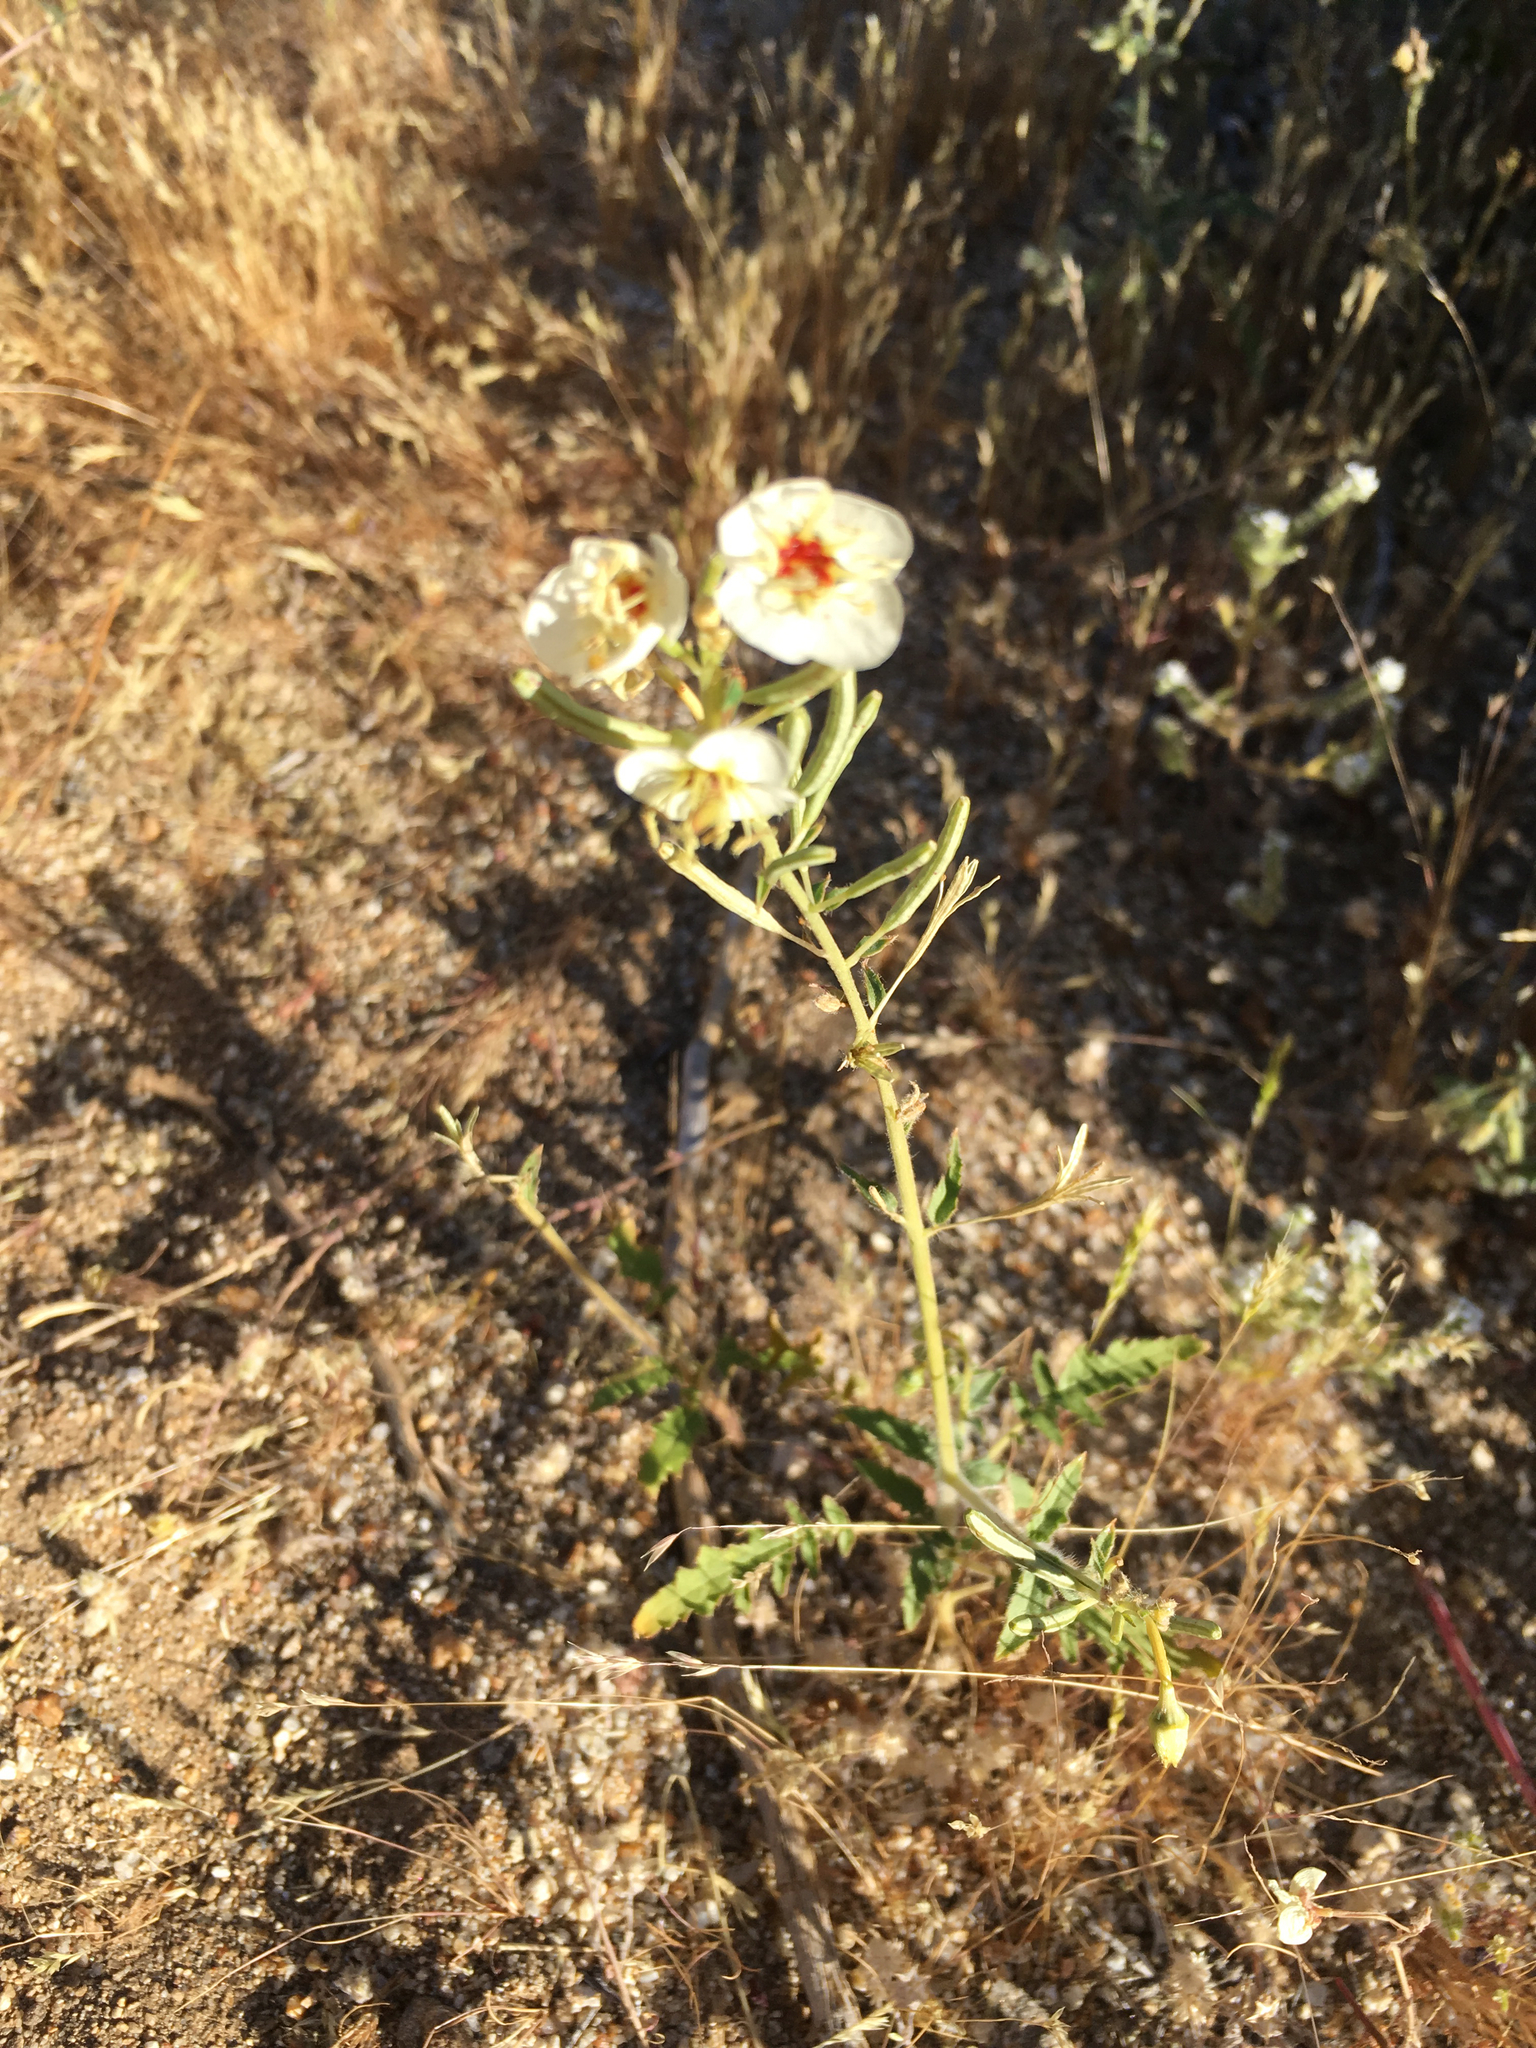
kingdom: Plantae
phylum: Tracheophyta
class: Magnoliopsida
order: Myrtales
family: Onagraceae
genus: Chylismia
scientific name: Chylismia claviformis
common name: Browneyes
